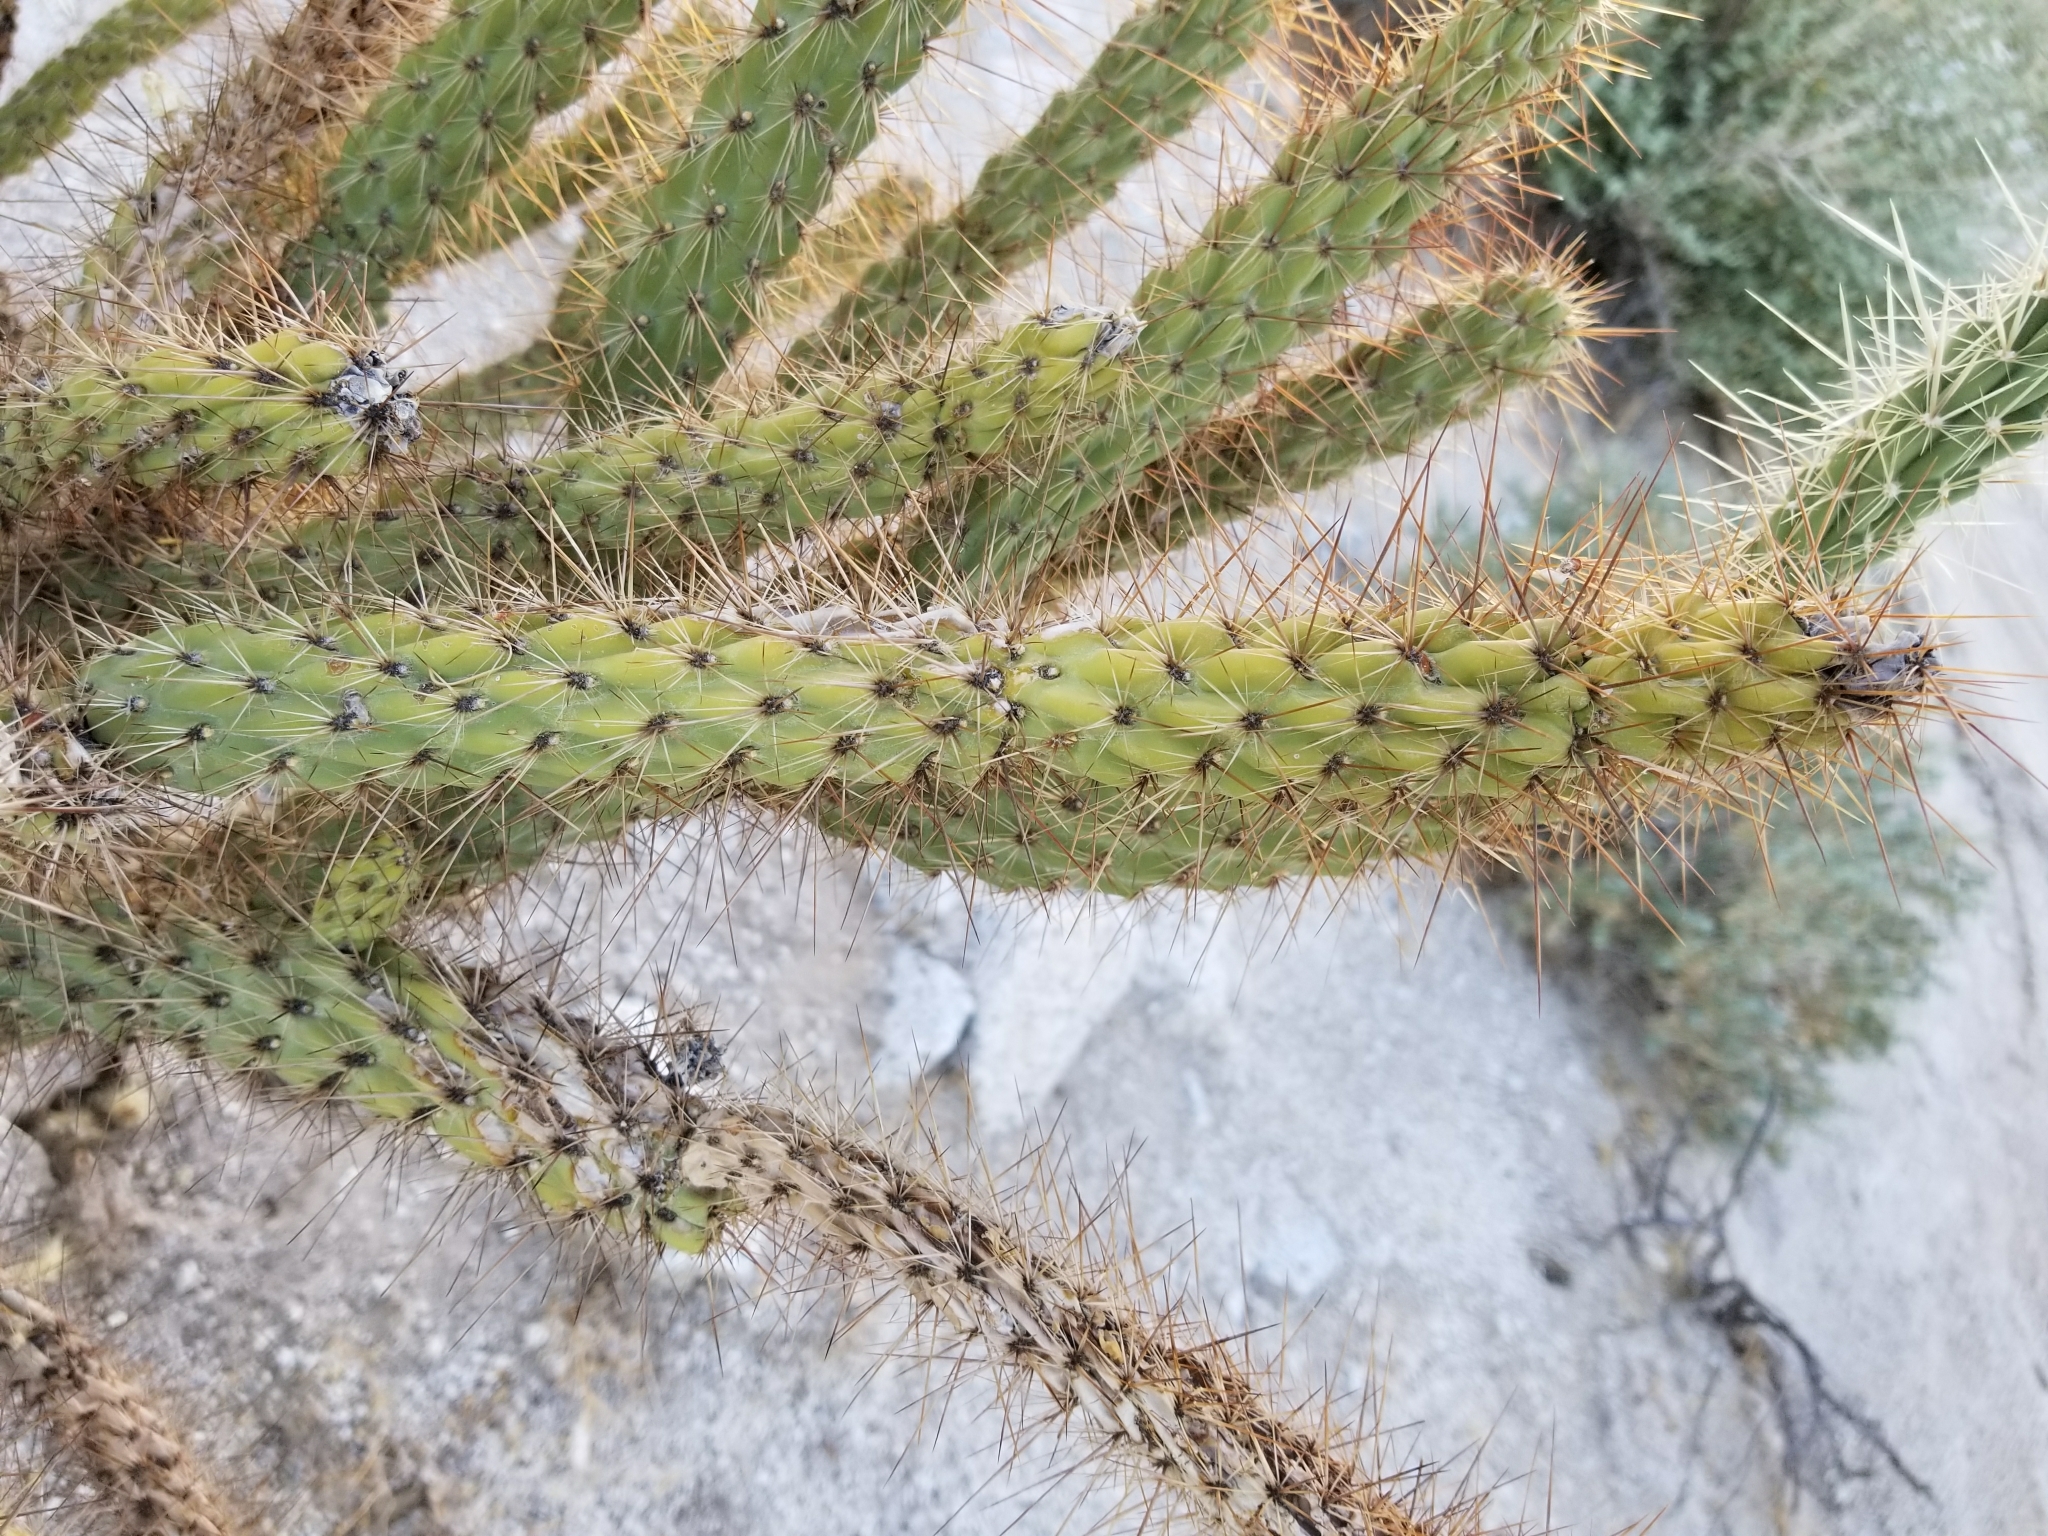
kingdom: Plantae
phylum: Tracheophyta
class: Magnoliopsida
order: Caryophyllales
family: Cactaceae
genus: Cylindropuntia
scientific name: Cylindropuntia ganderi
